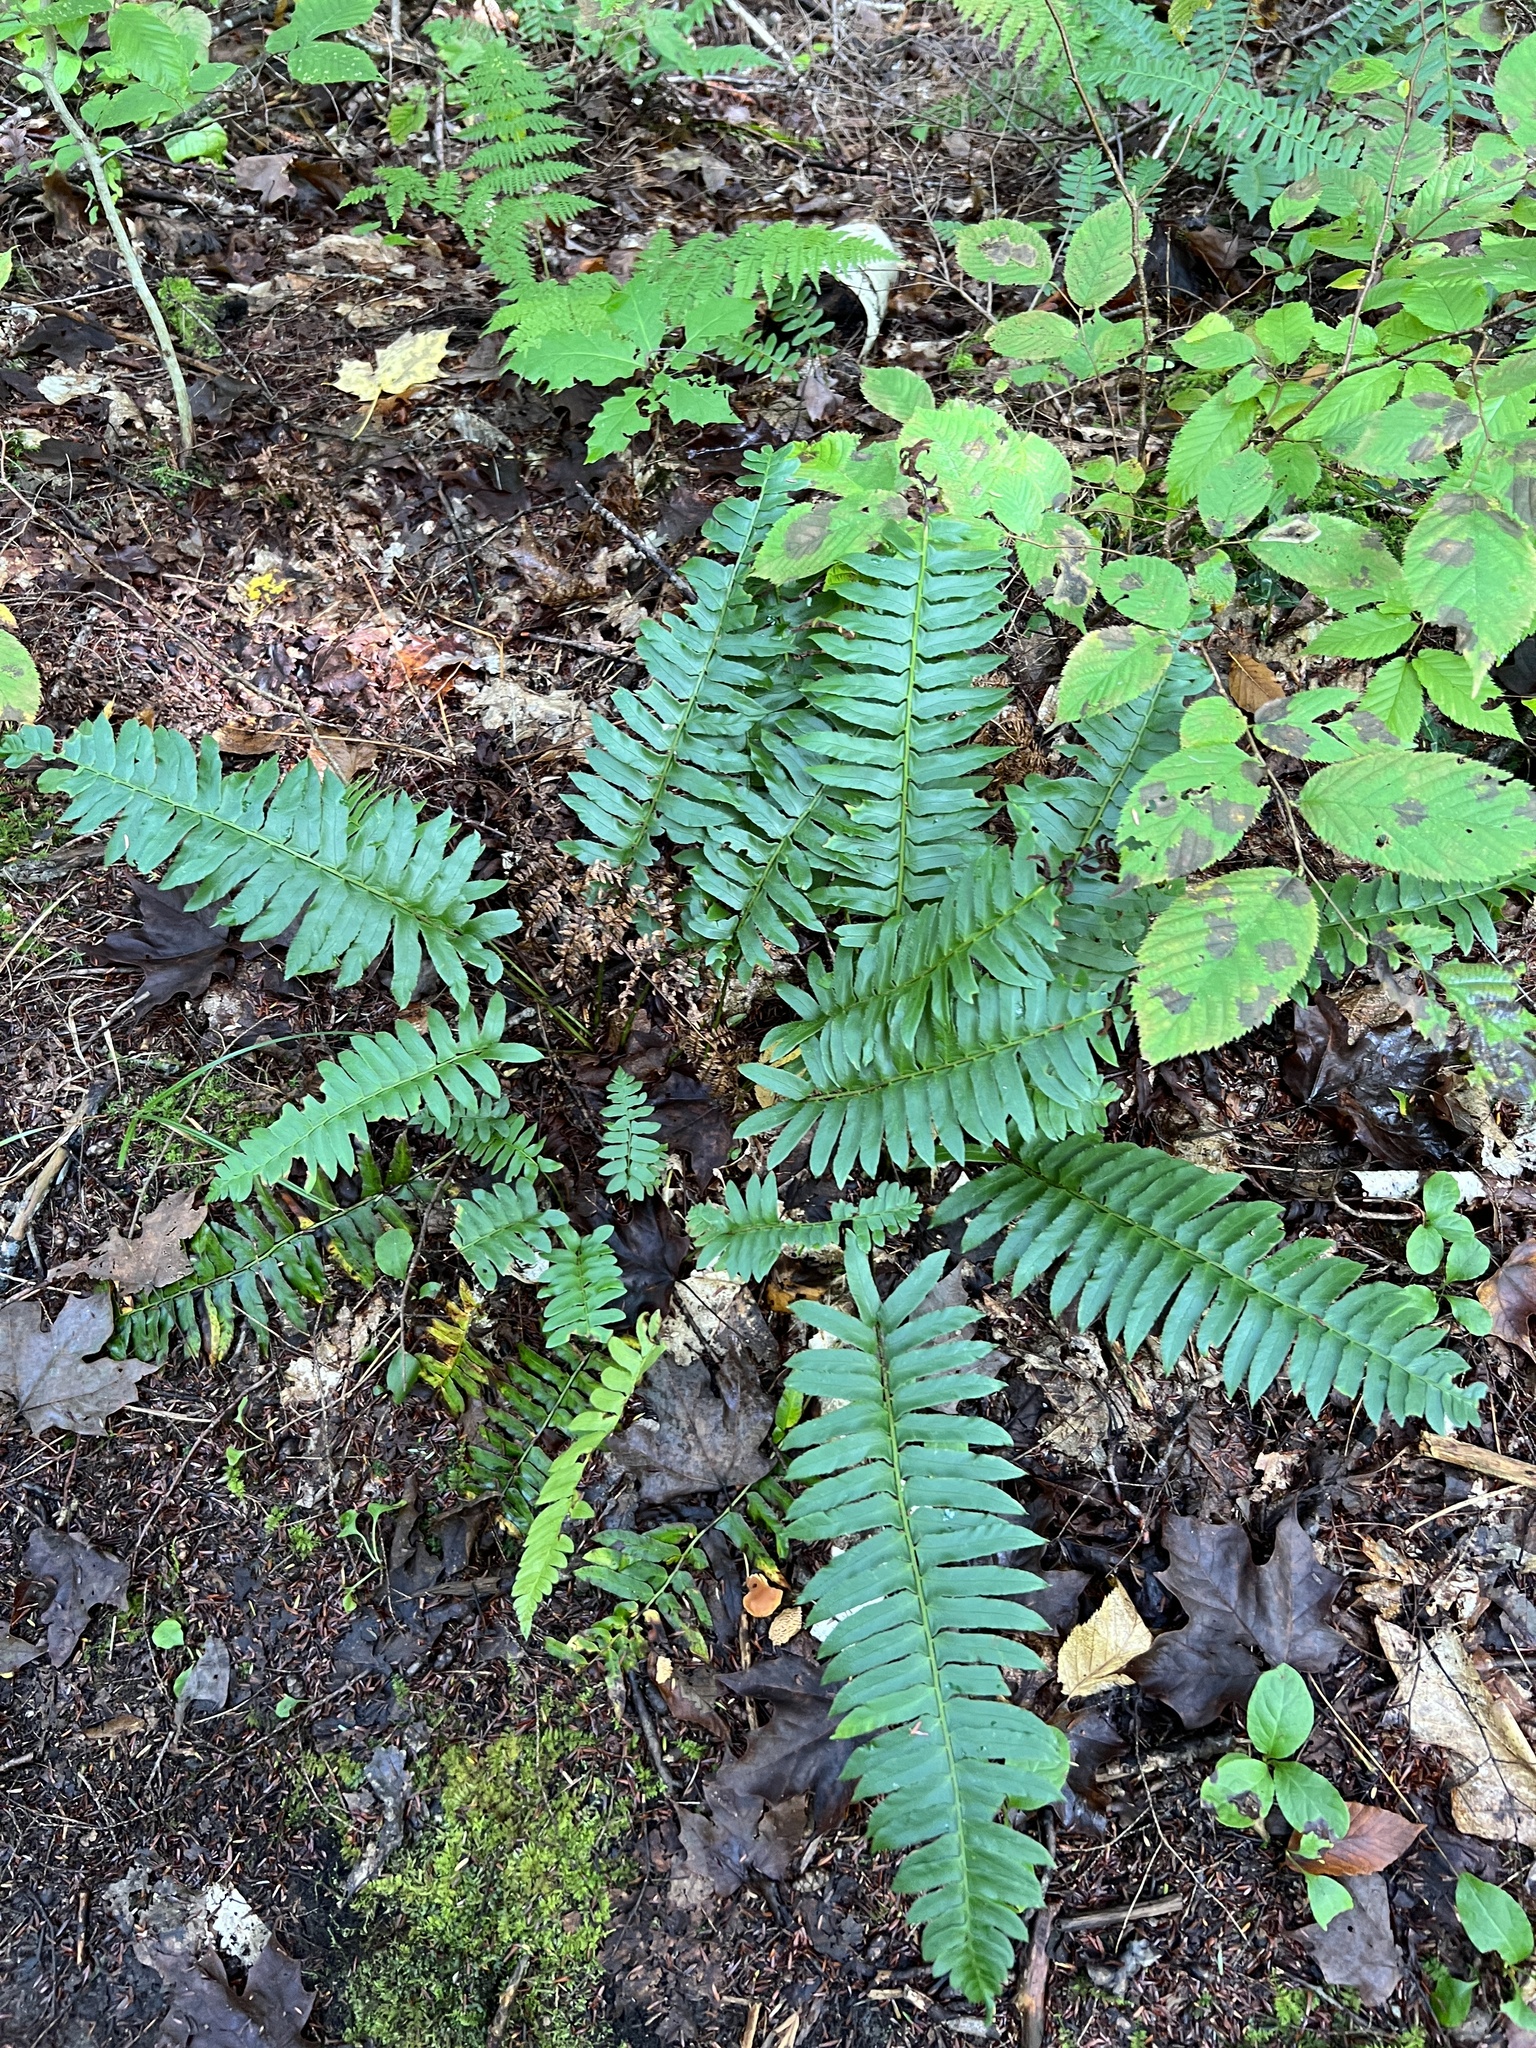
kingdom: Plantae
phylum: Tracheophyta
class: Polypodiopsida
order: Polypodiales
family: Dryopteridaceae
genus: Polystichum
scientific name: Polystichum acrostichoides
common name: Christmas fern
